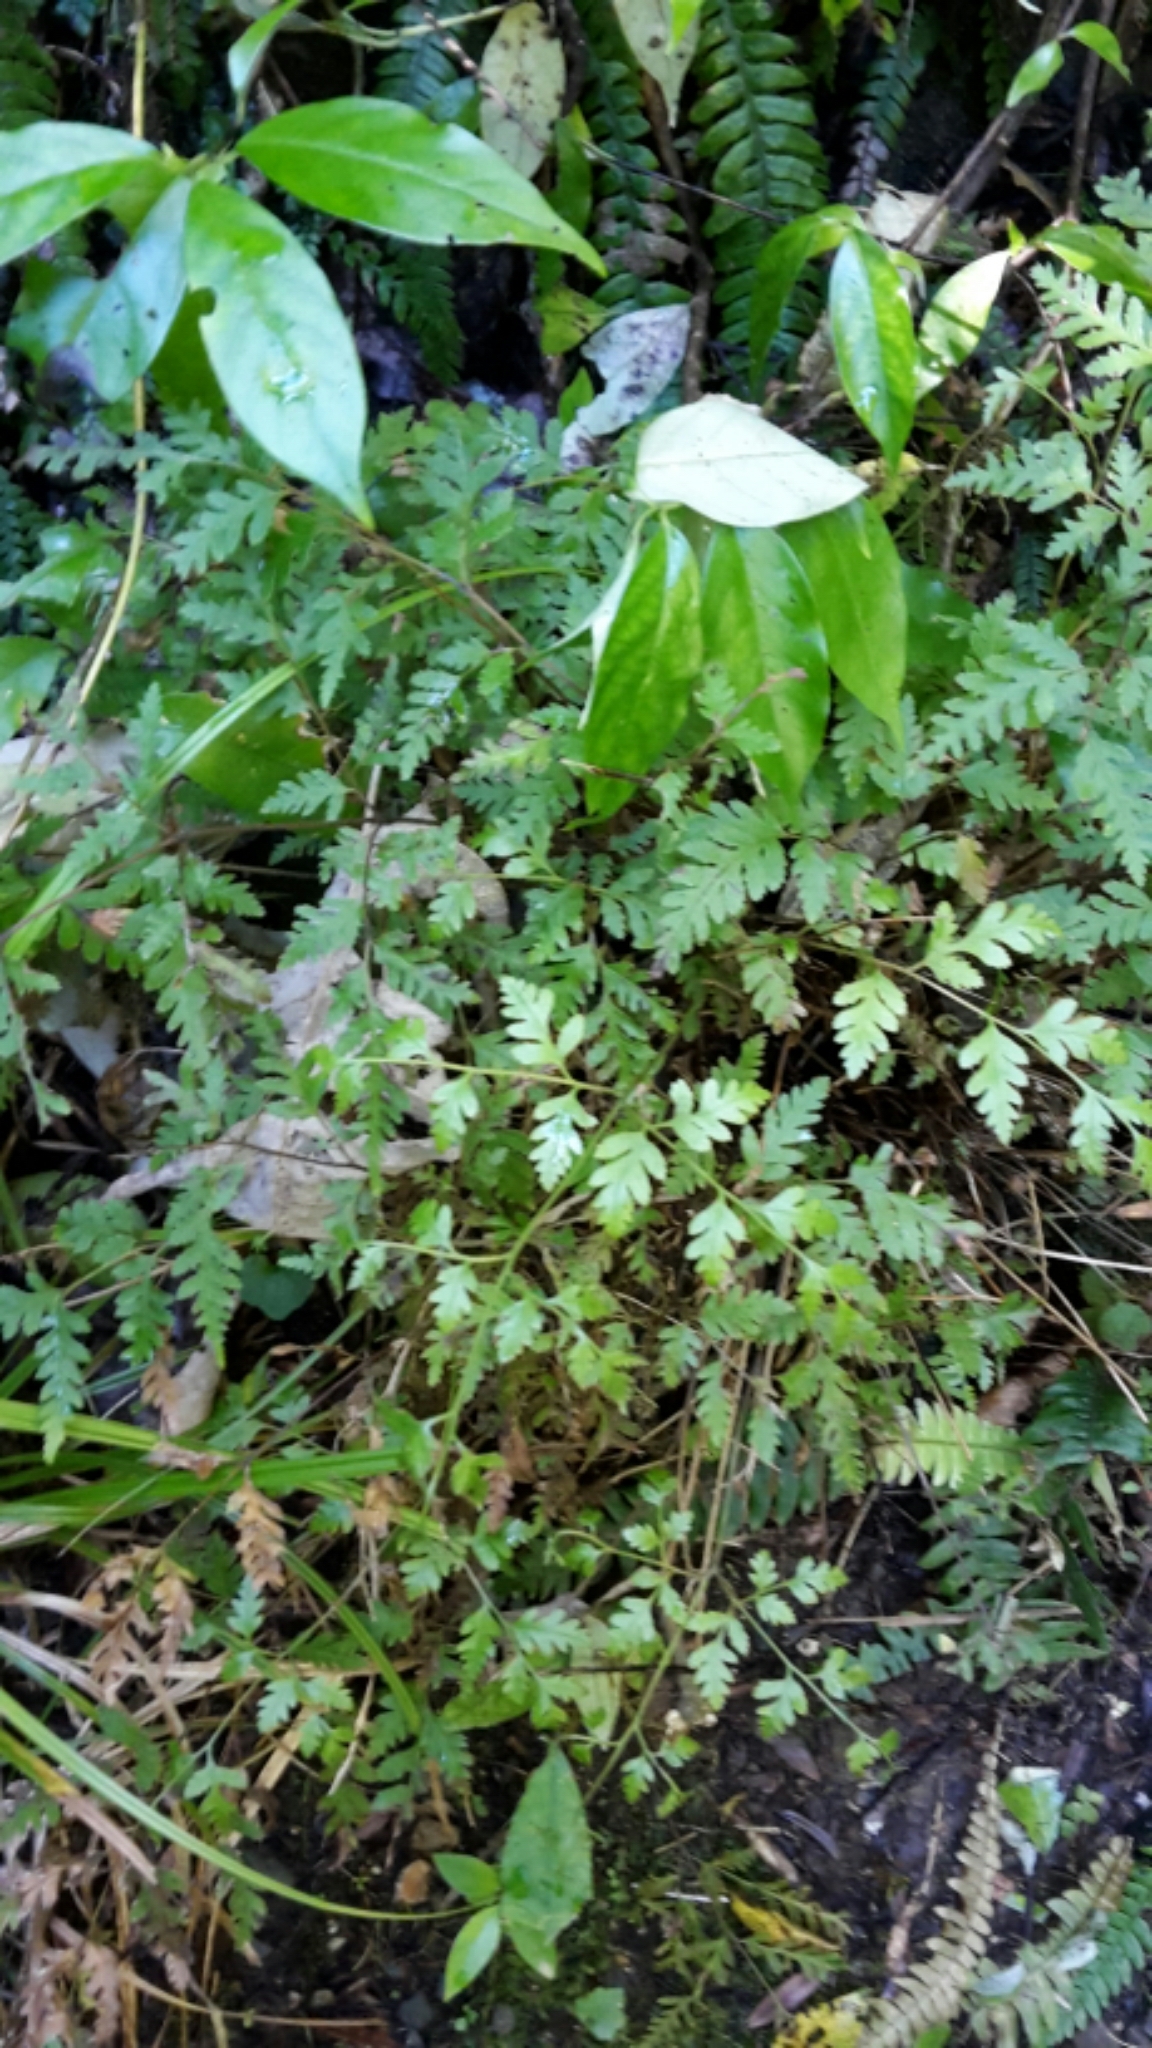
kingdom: Plantae
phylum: Tracheophyta
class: Polypodiopsida
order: Polypodiales
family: Pteridaceae
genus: Pteris
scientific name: Pteris macilenta
